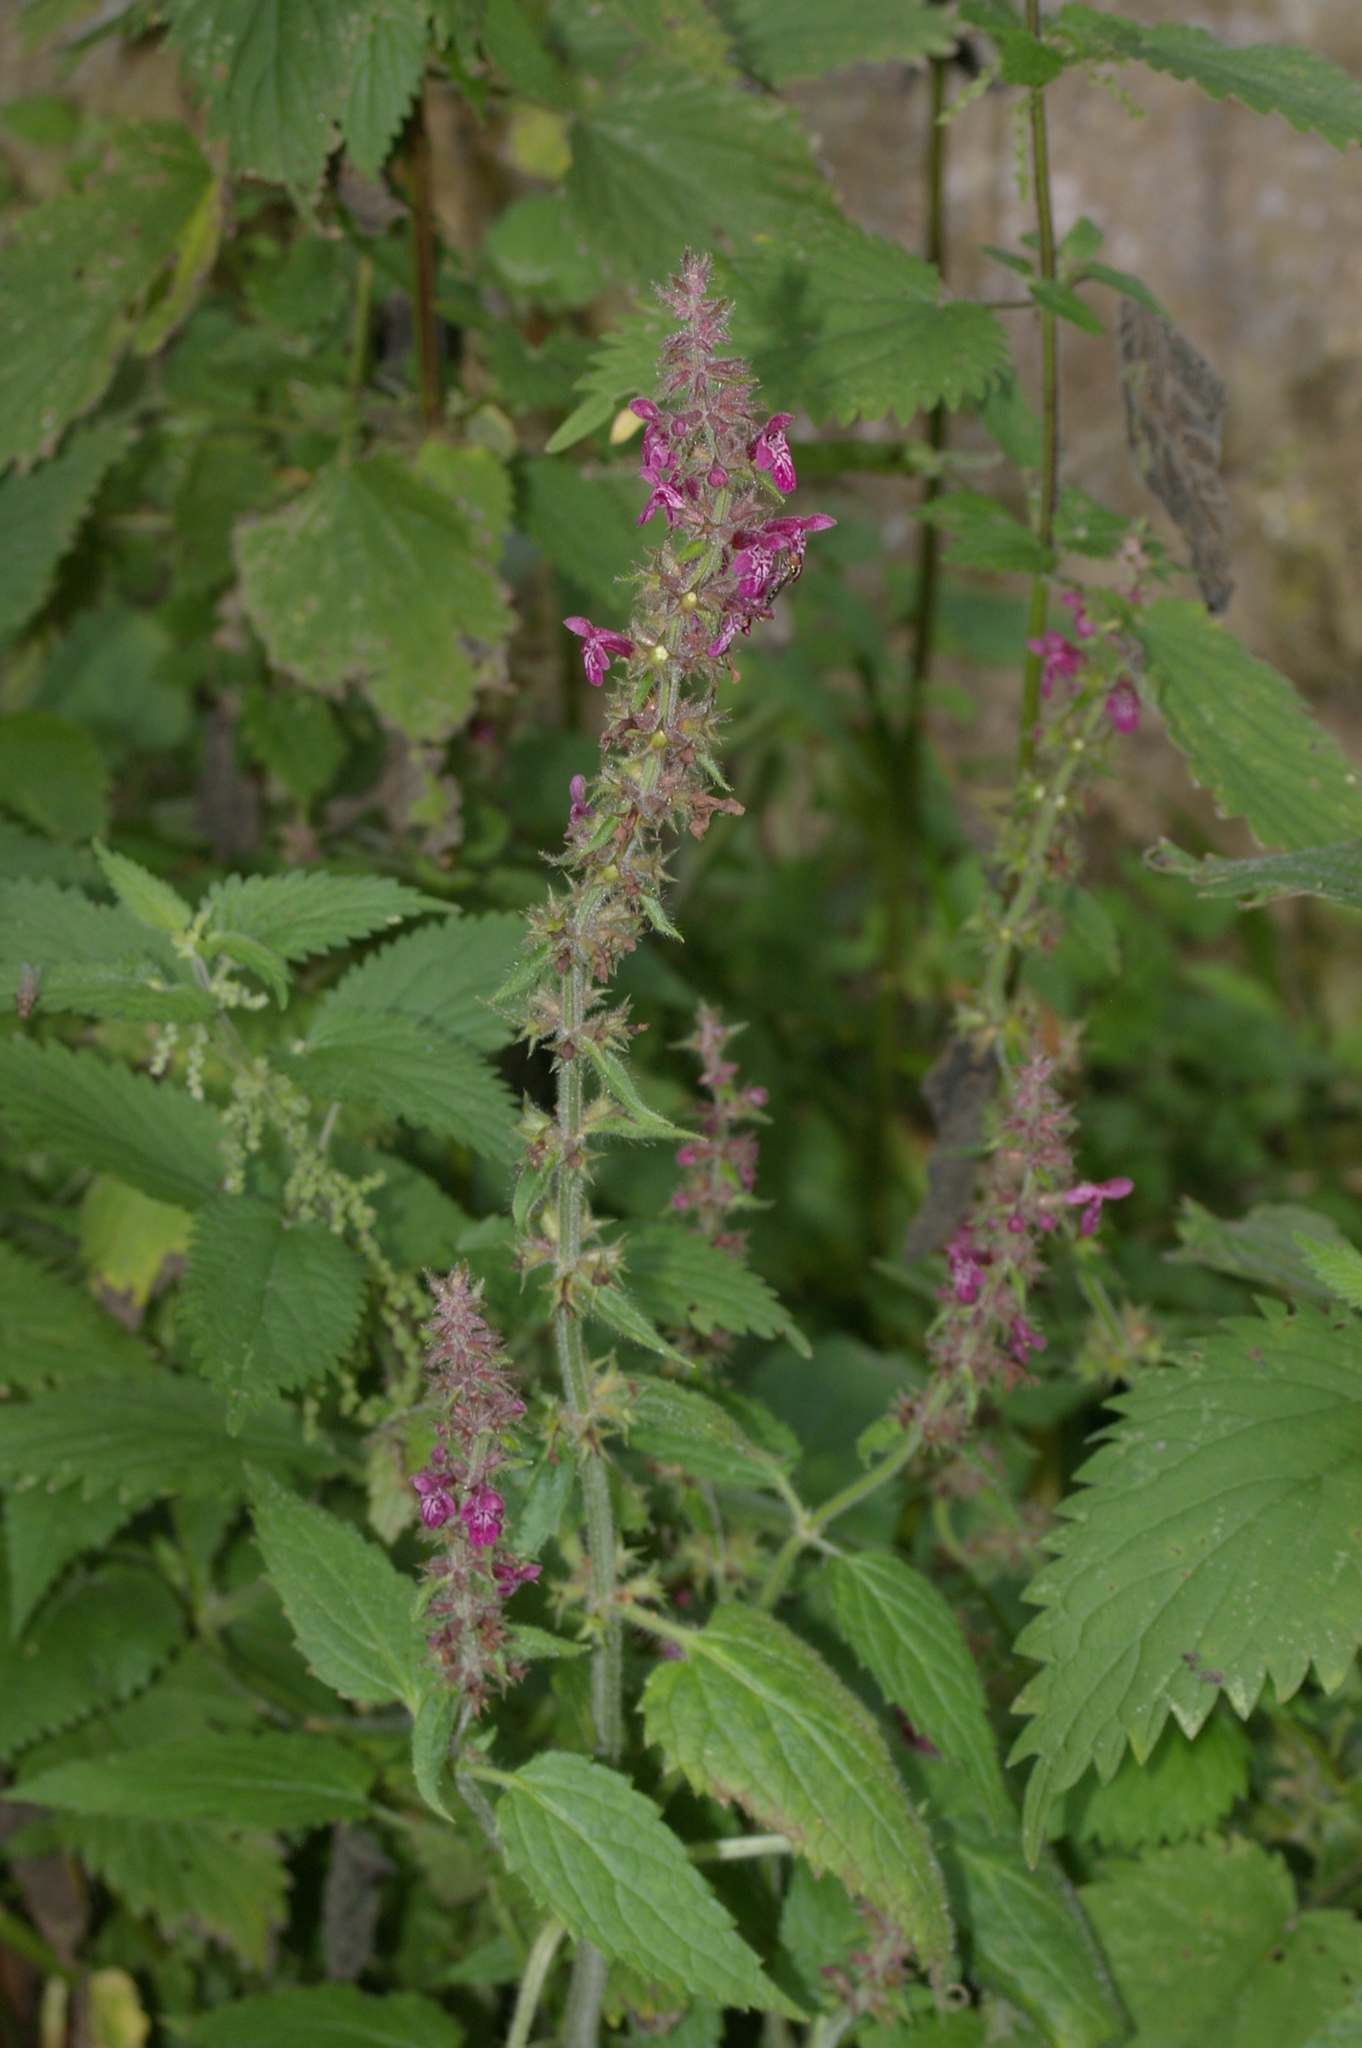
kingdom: Plantae
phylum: Tracheophyta
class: Magnoliopsida
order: Lamiales
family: Lamiaceae
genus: Stachys
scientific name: Stachys sylvatica
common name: Hedge woundwort
